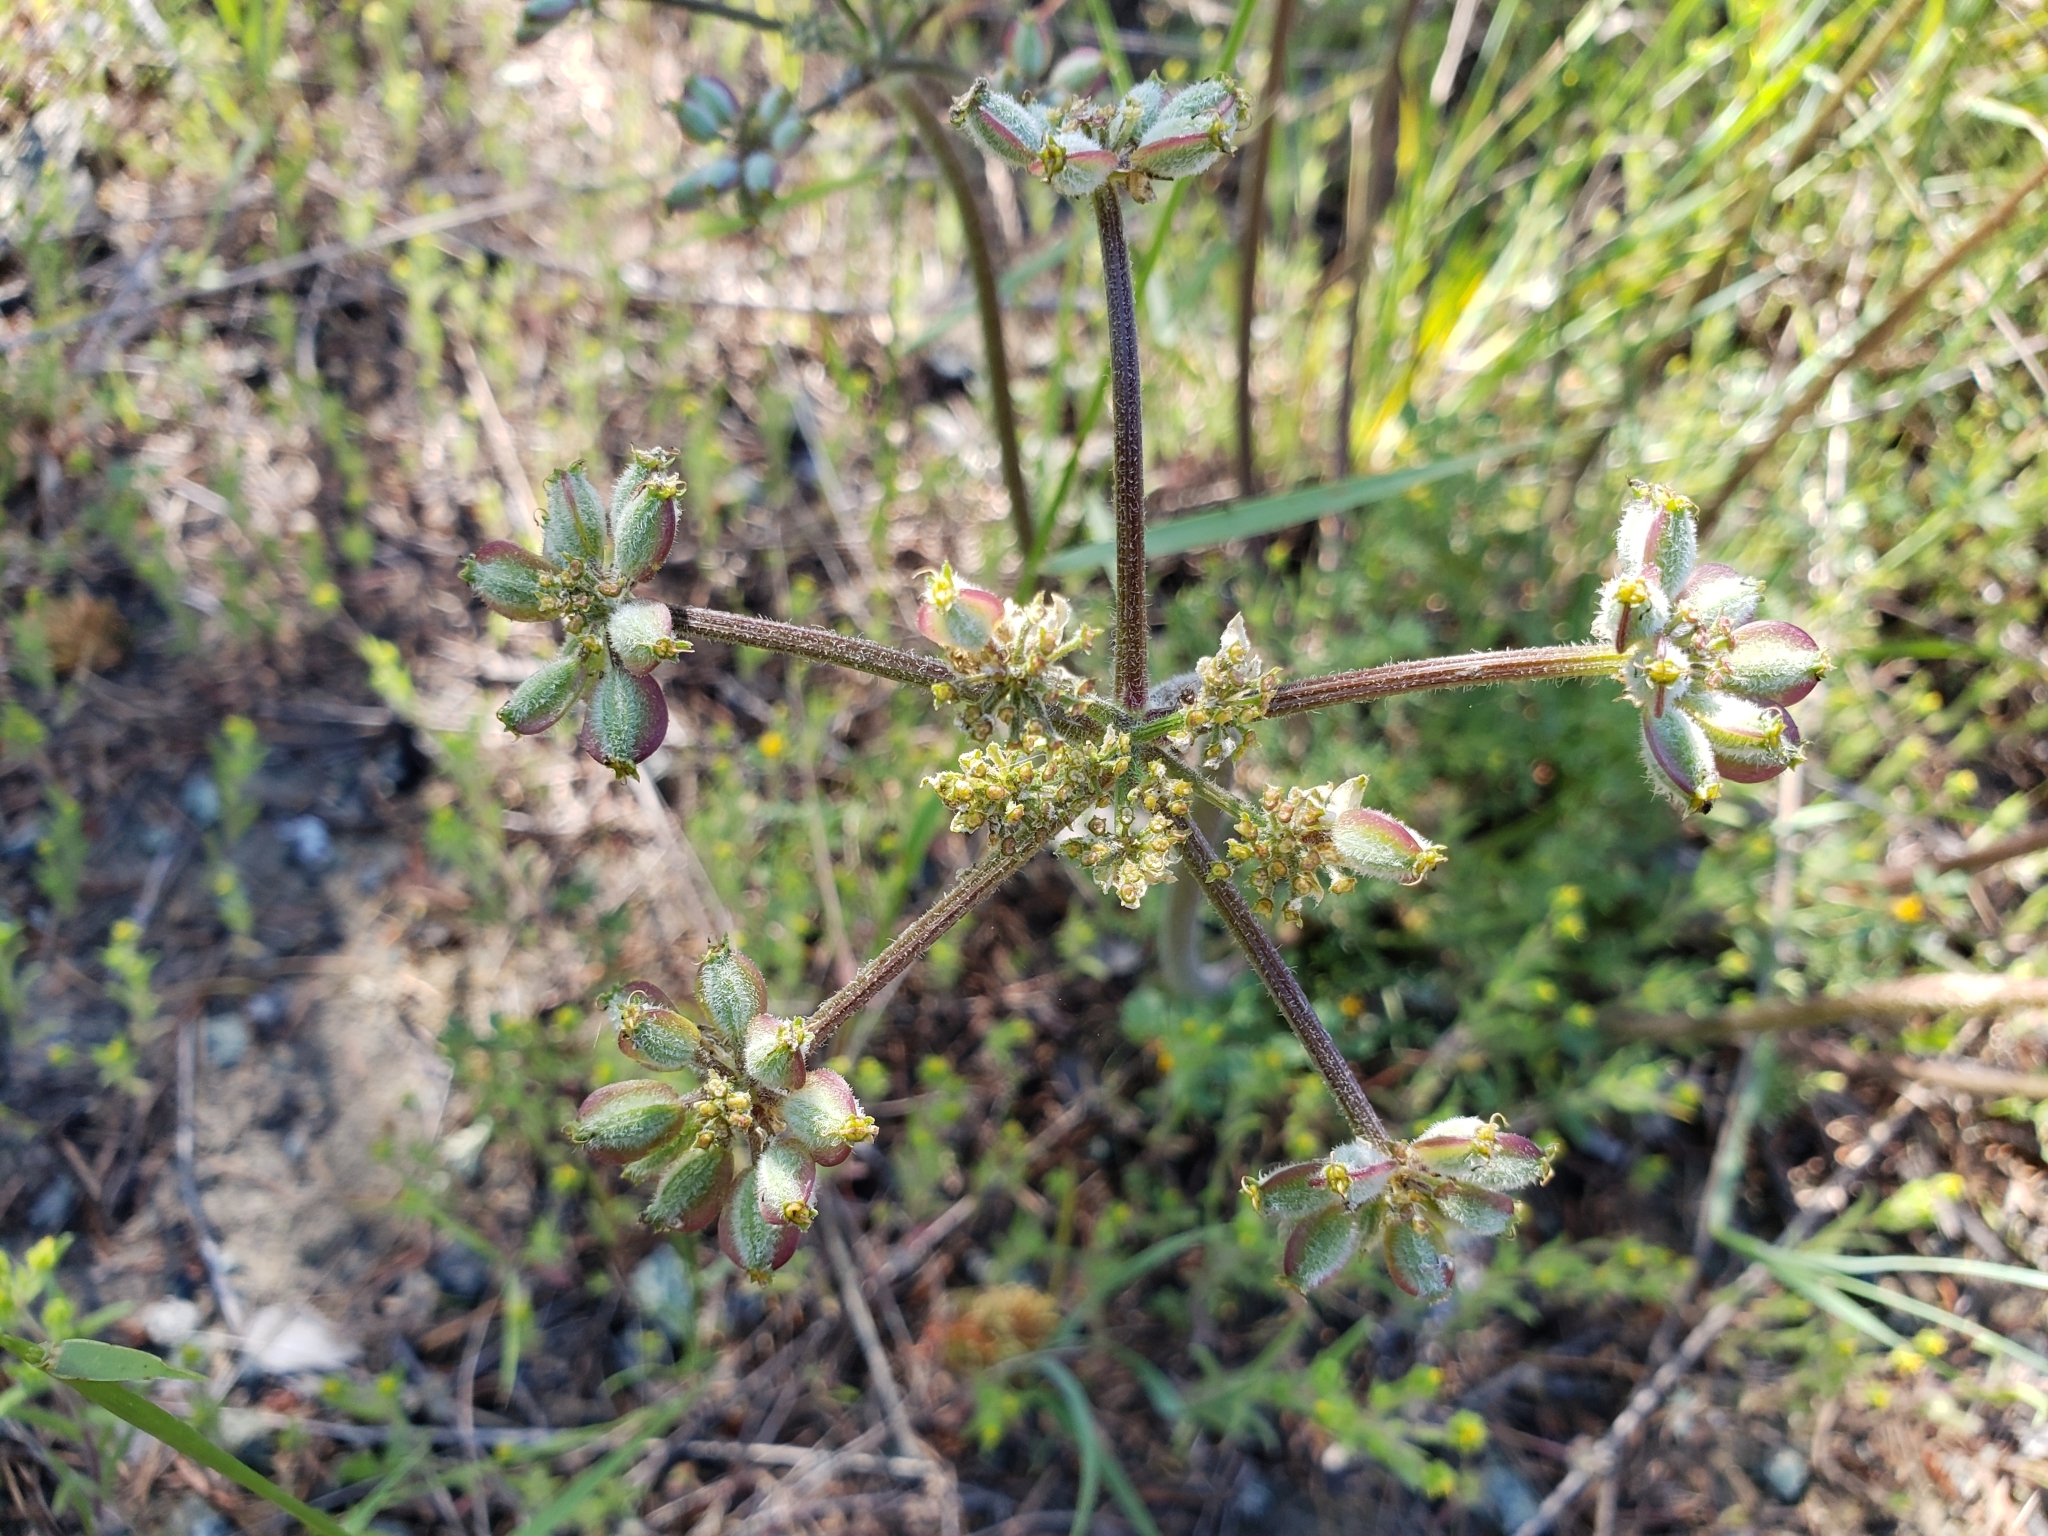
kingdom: Plantae
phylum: Tracheophyta
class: Magnoliopsida
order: Apiales
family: Apiaceae
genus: Lomatium
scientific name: Lomatium dasycarpum
